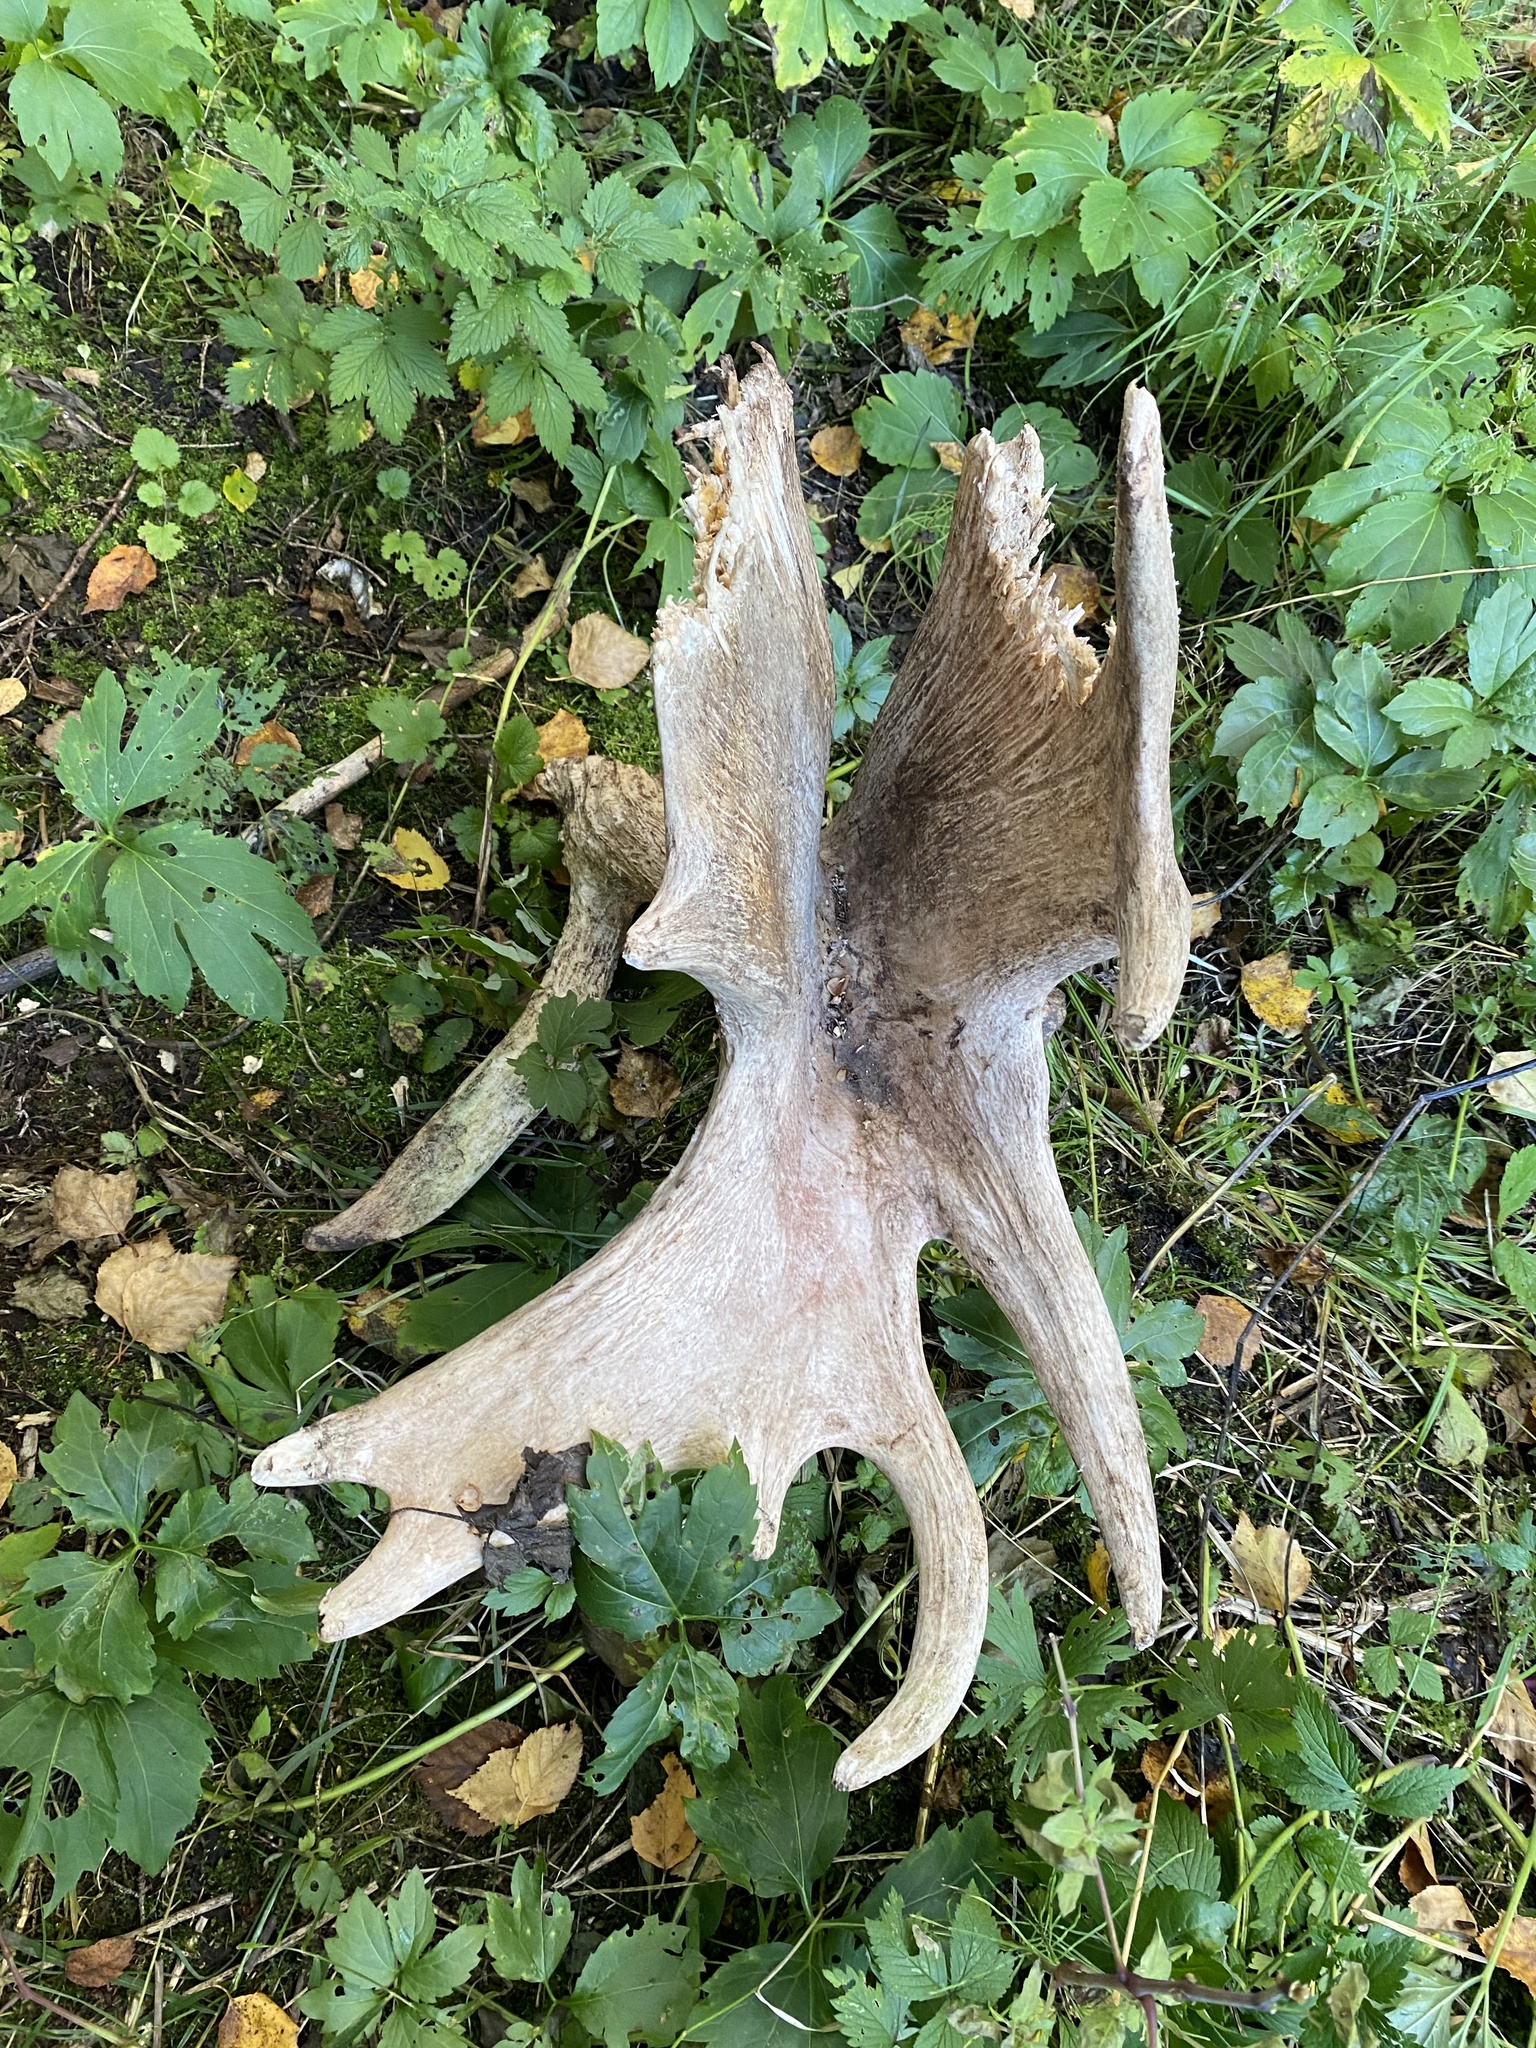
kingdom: Animalia
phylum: Chordata
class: Mammalia
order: Artiodactyla
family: Cervidae
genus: Alces
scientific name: Alces alces
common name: Moose
